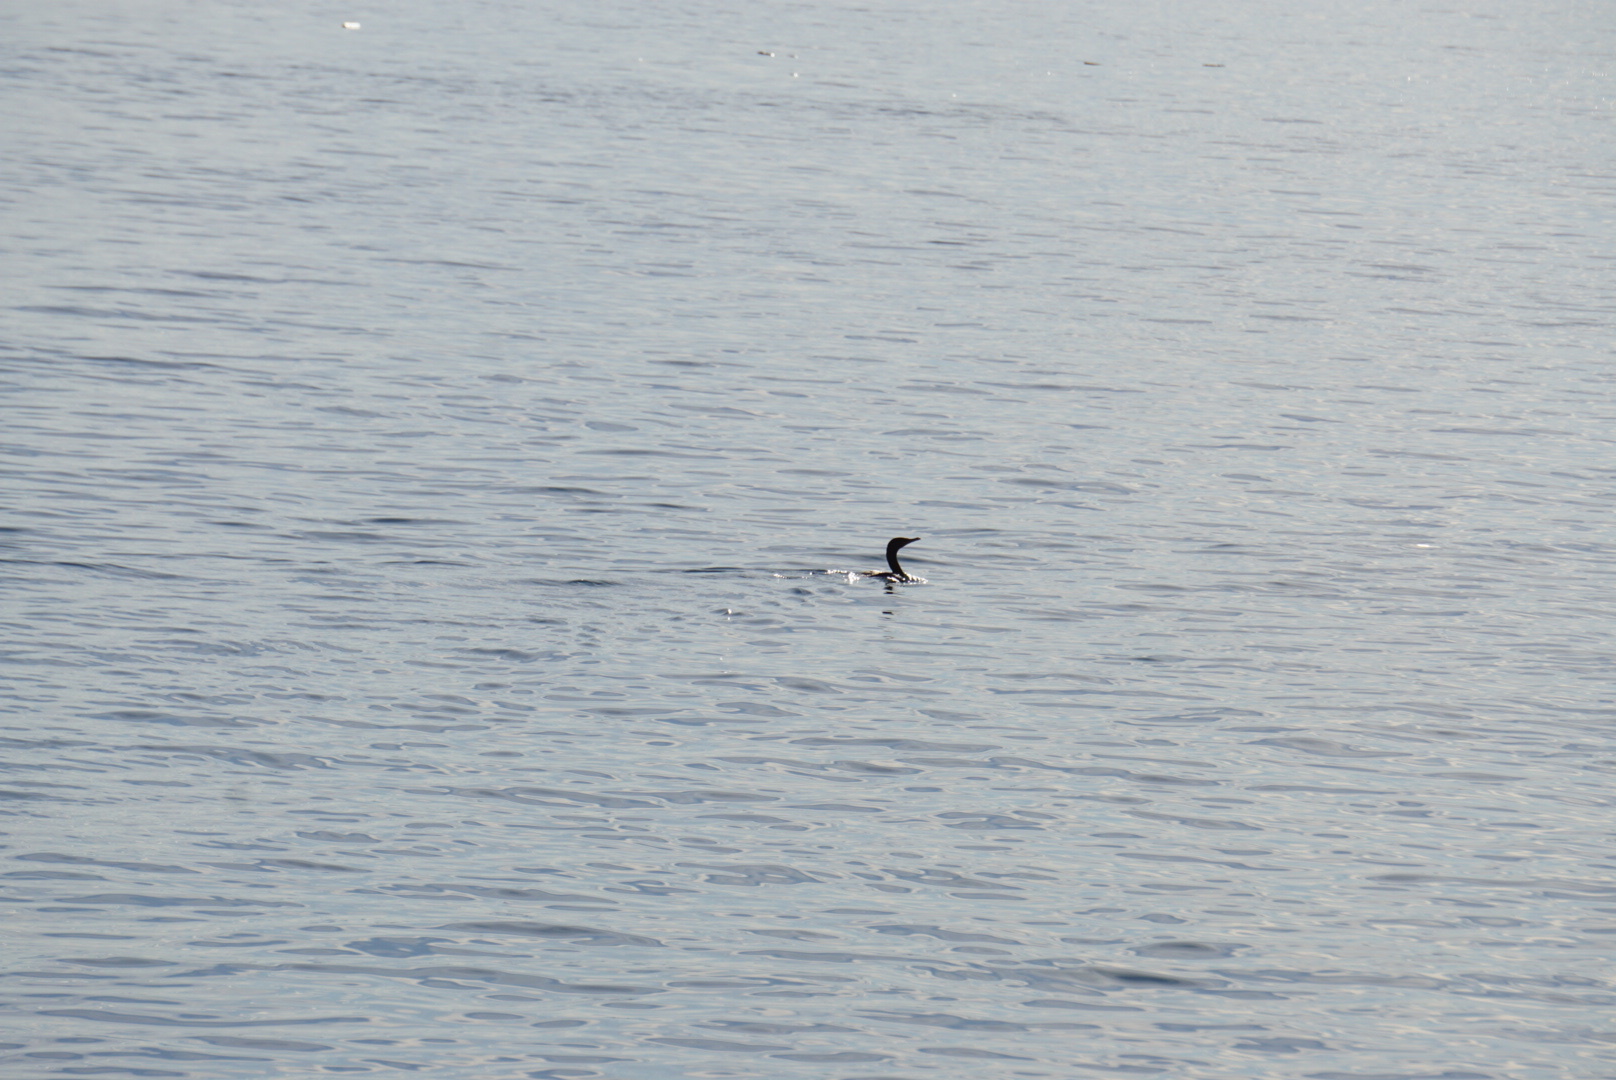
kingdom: Animalia
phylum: Chordata
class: Aves
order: Suliformes
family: Phalacrocoracidae
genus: Phalacrocorax
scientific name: Phalacrocorax pelagicus
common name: Pelagic cormorant
